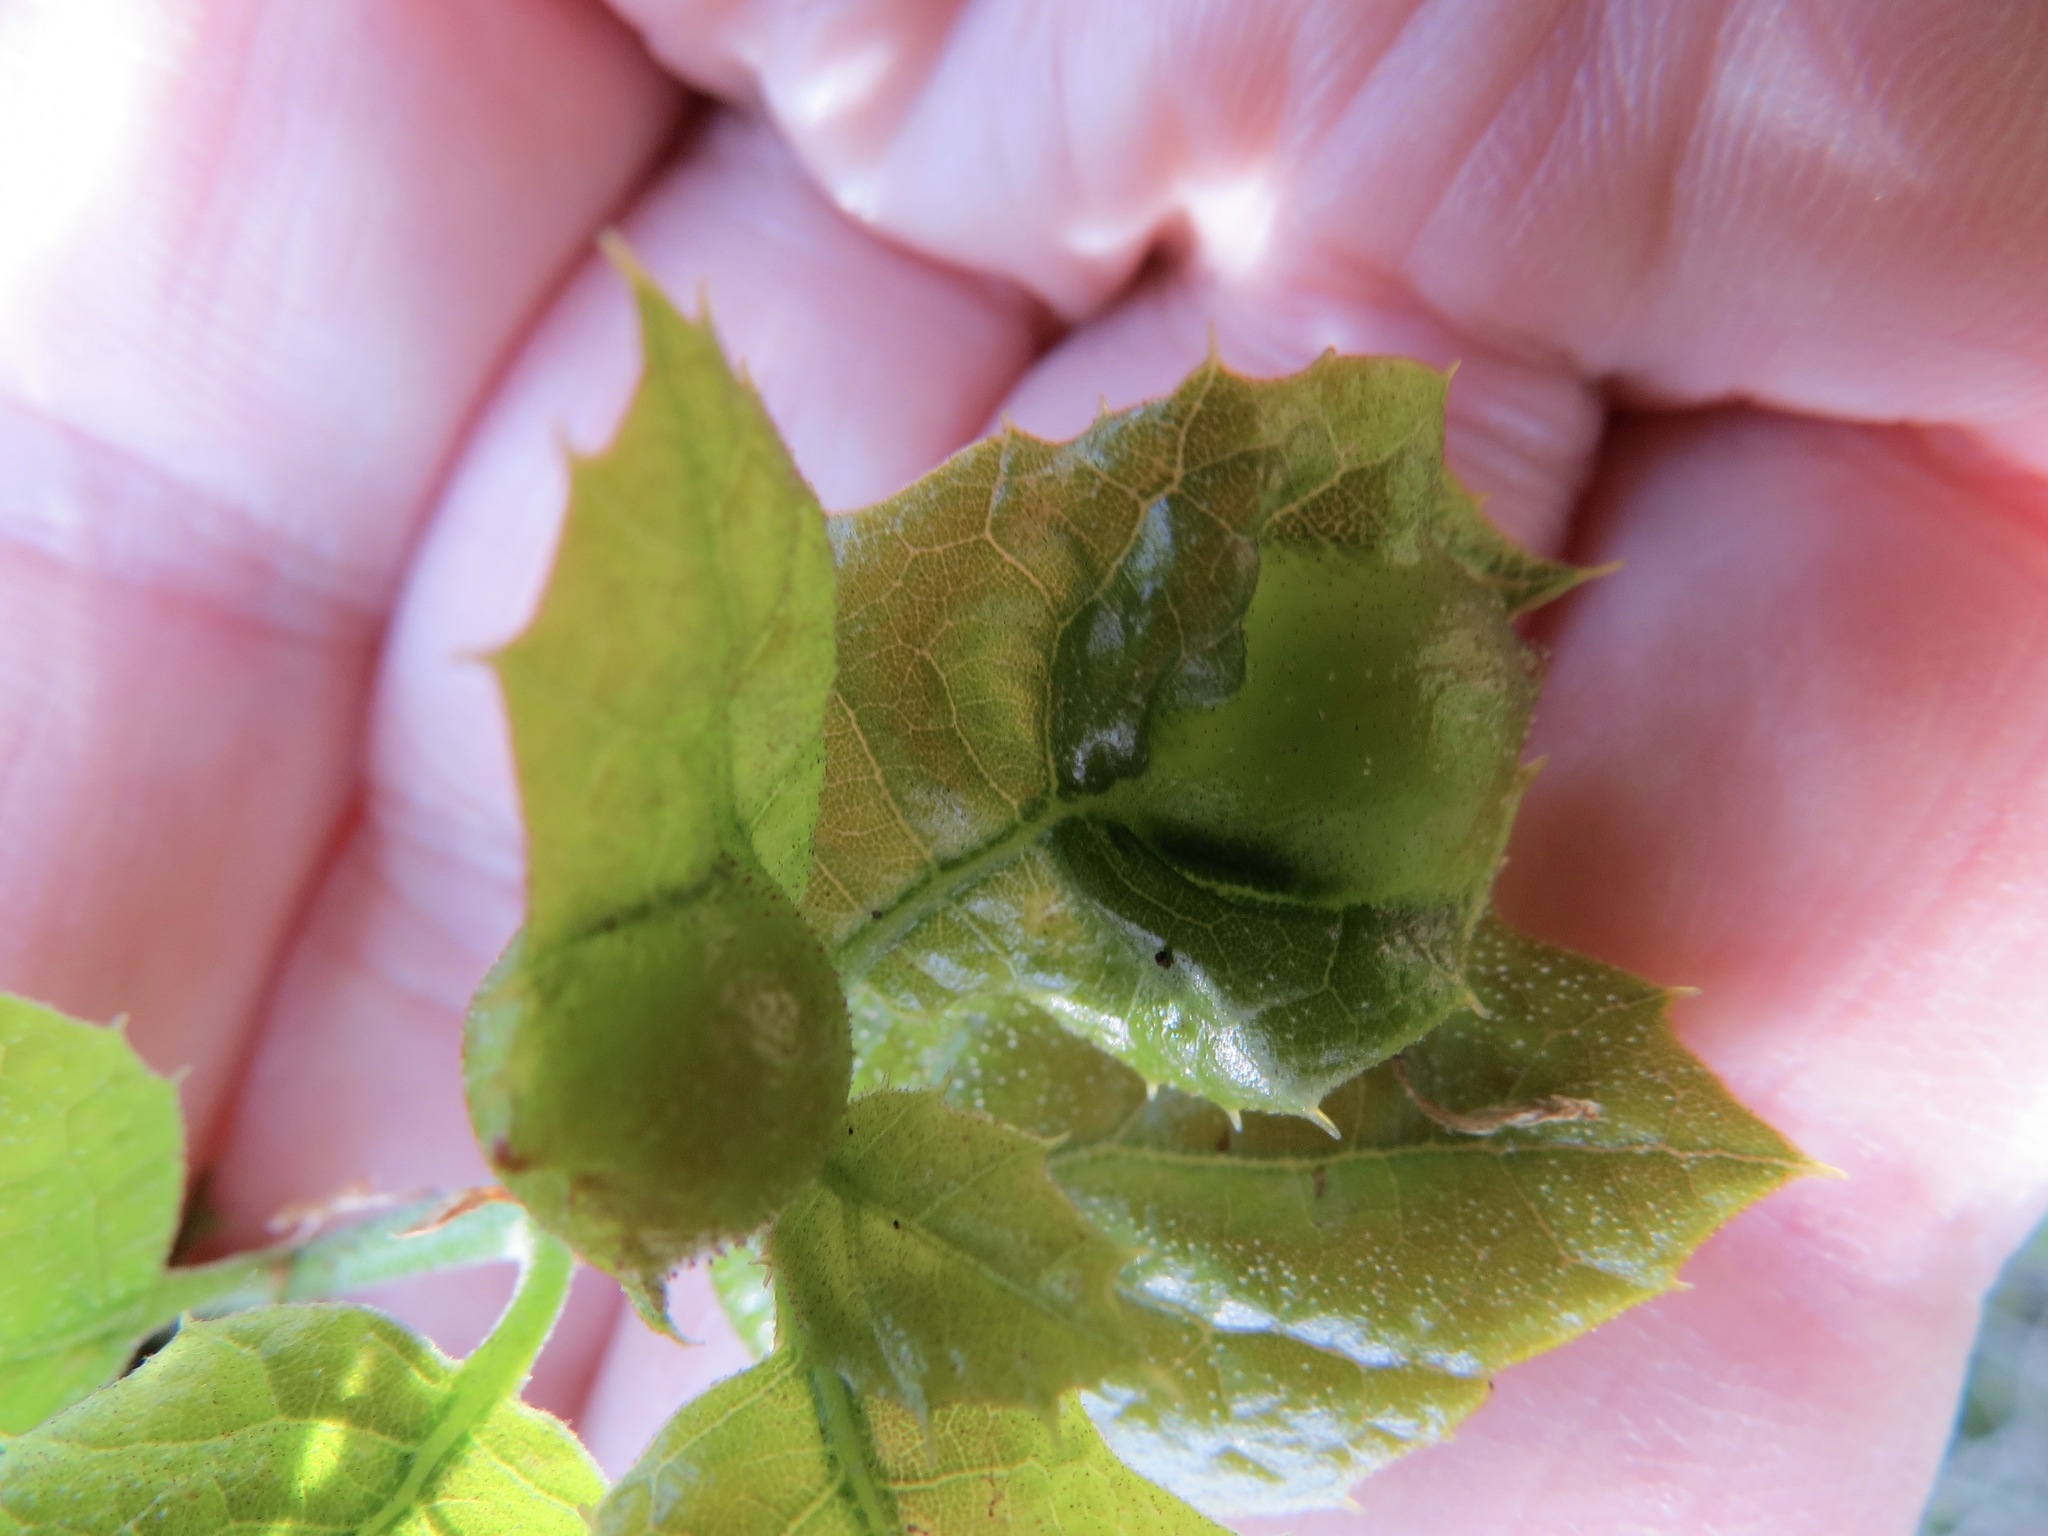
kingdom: Animalia
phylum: Arthropoda
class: Insecta
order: Hymenoptera
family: Cynipidae
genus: Callirhytis
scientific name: Callirhytis
